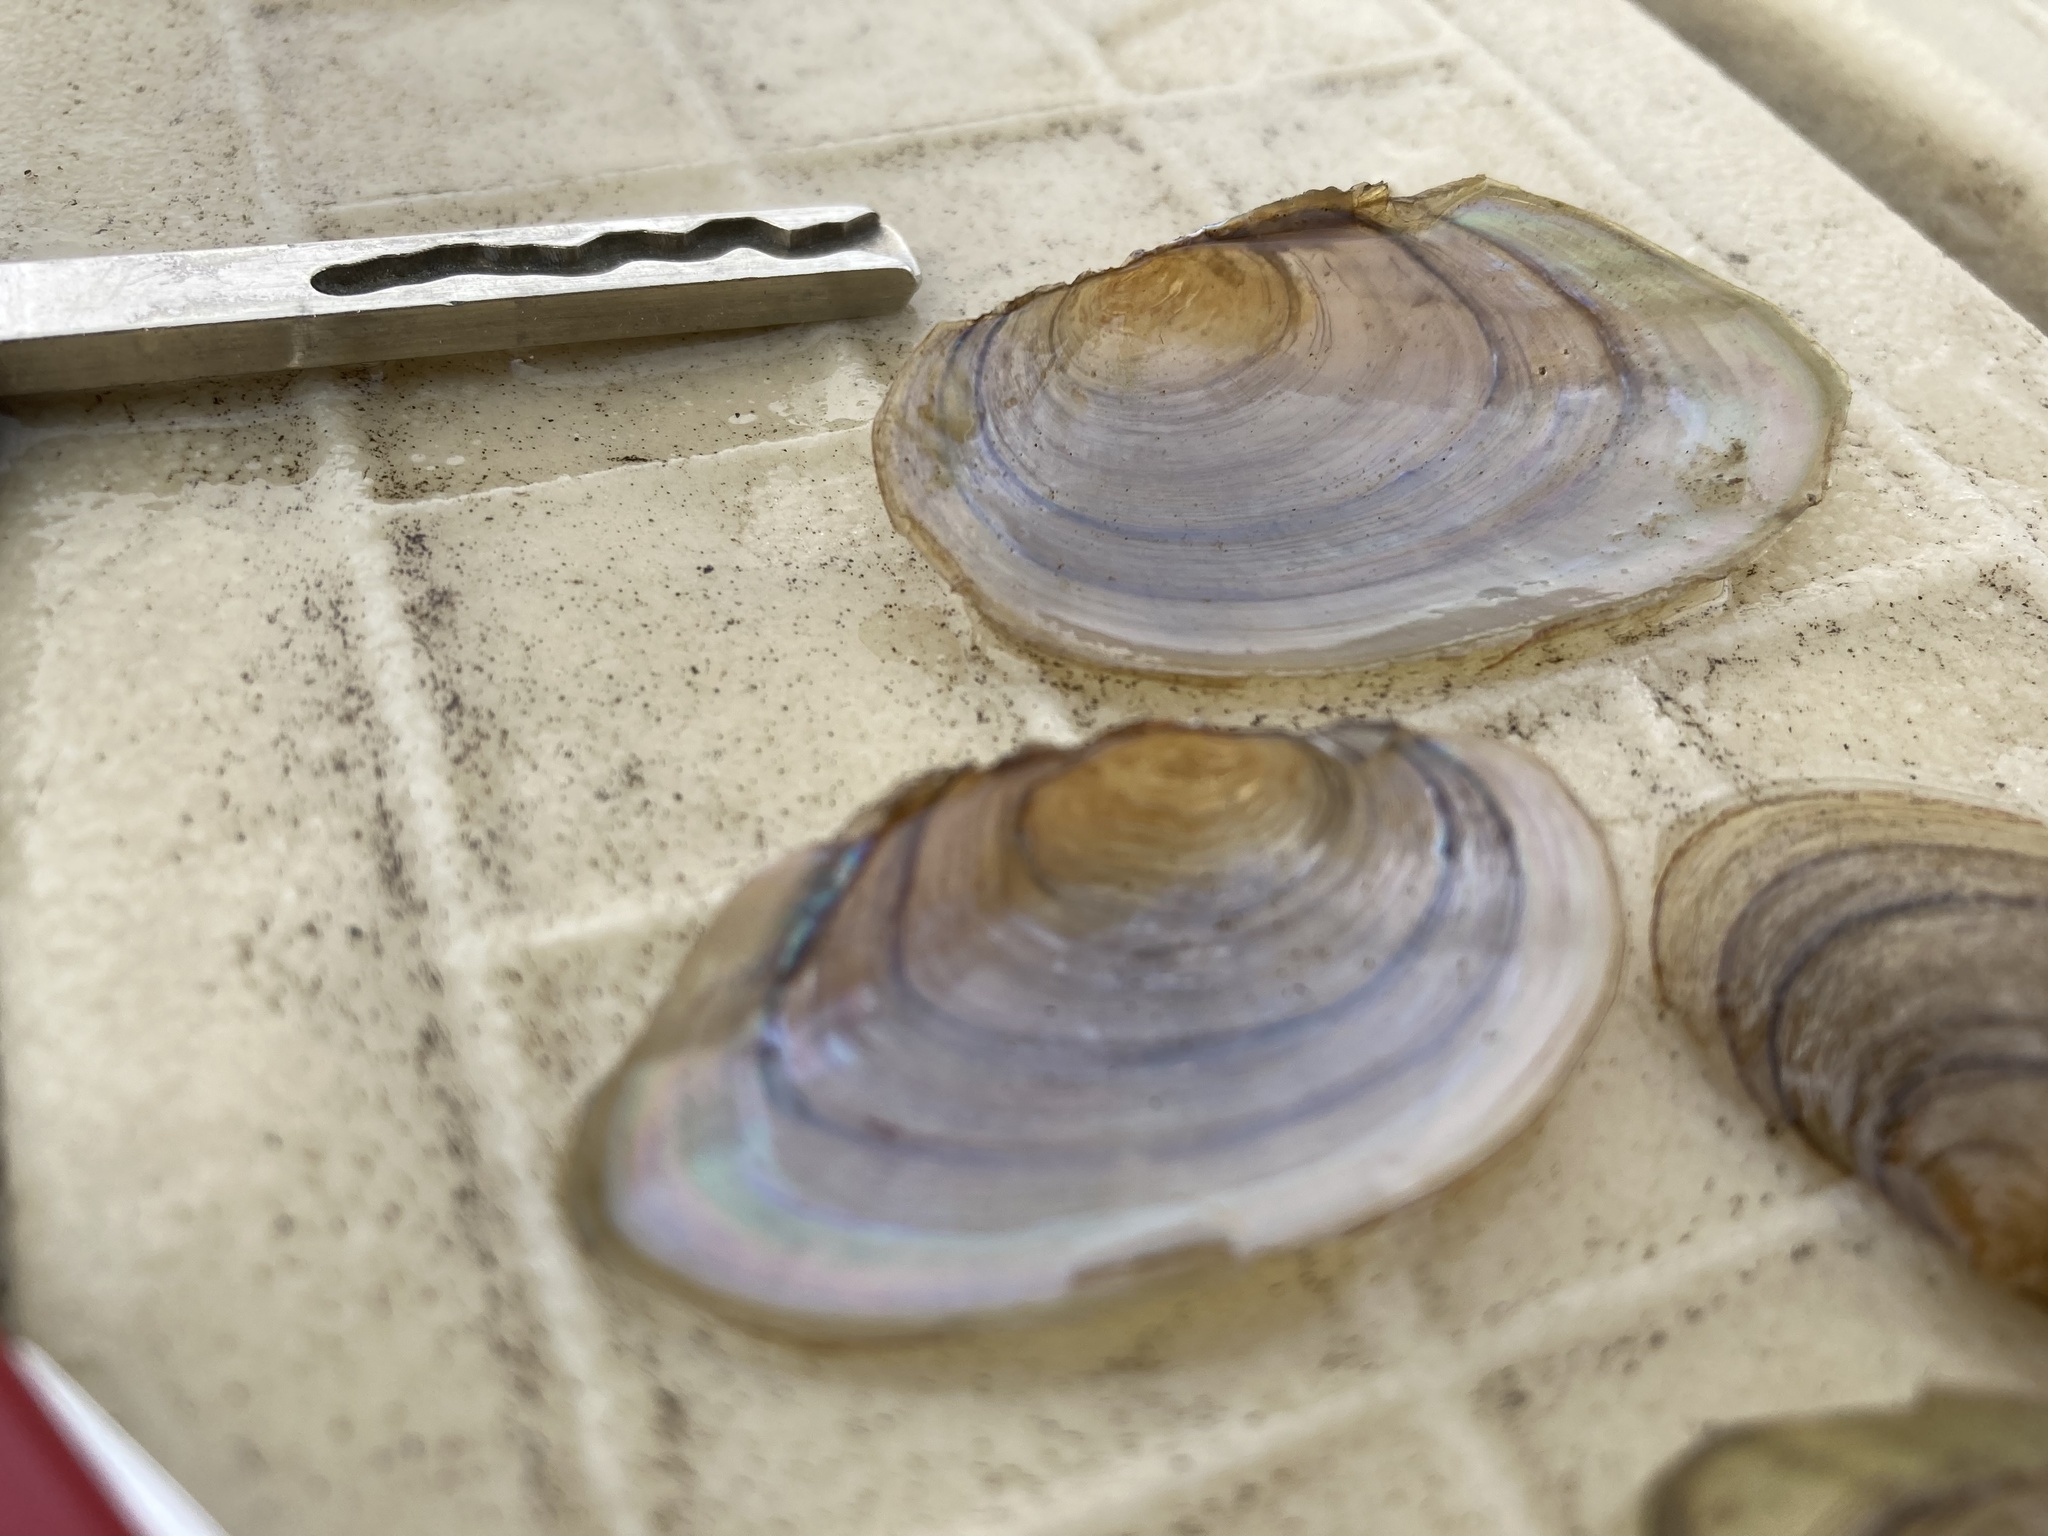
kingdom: Animalia
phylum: Mollusca
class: Bivalvia
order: Unionida
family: Unionidae
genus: Pyganodon
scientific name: Pyganodon grandis
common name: Giant floater
